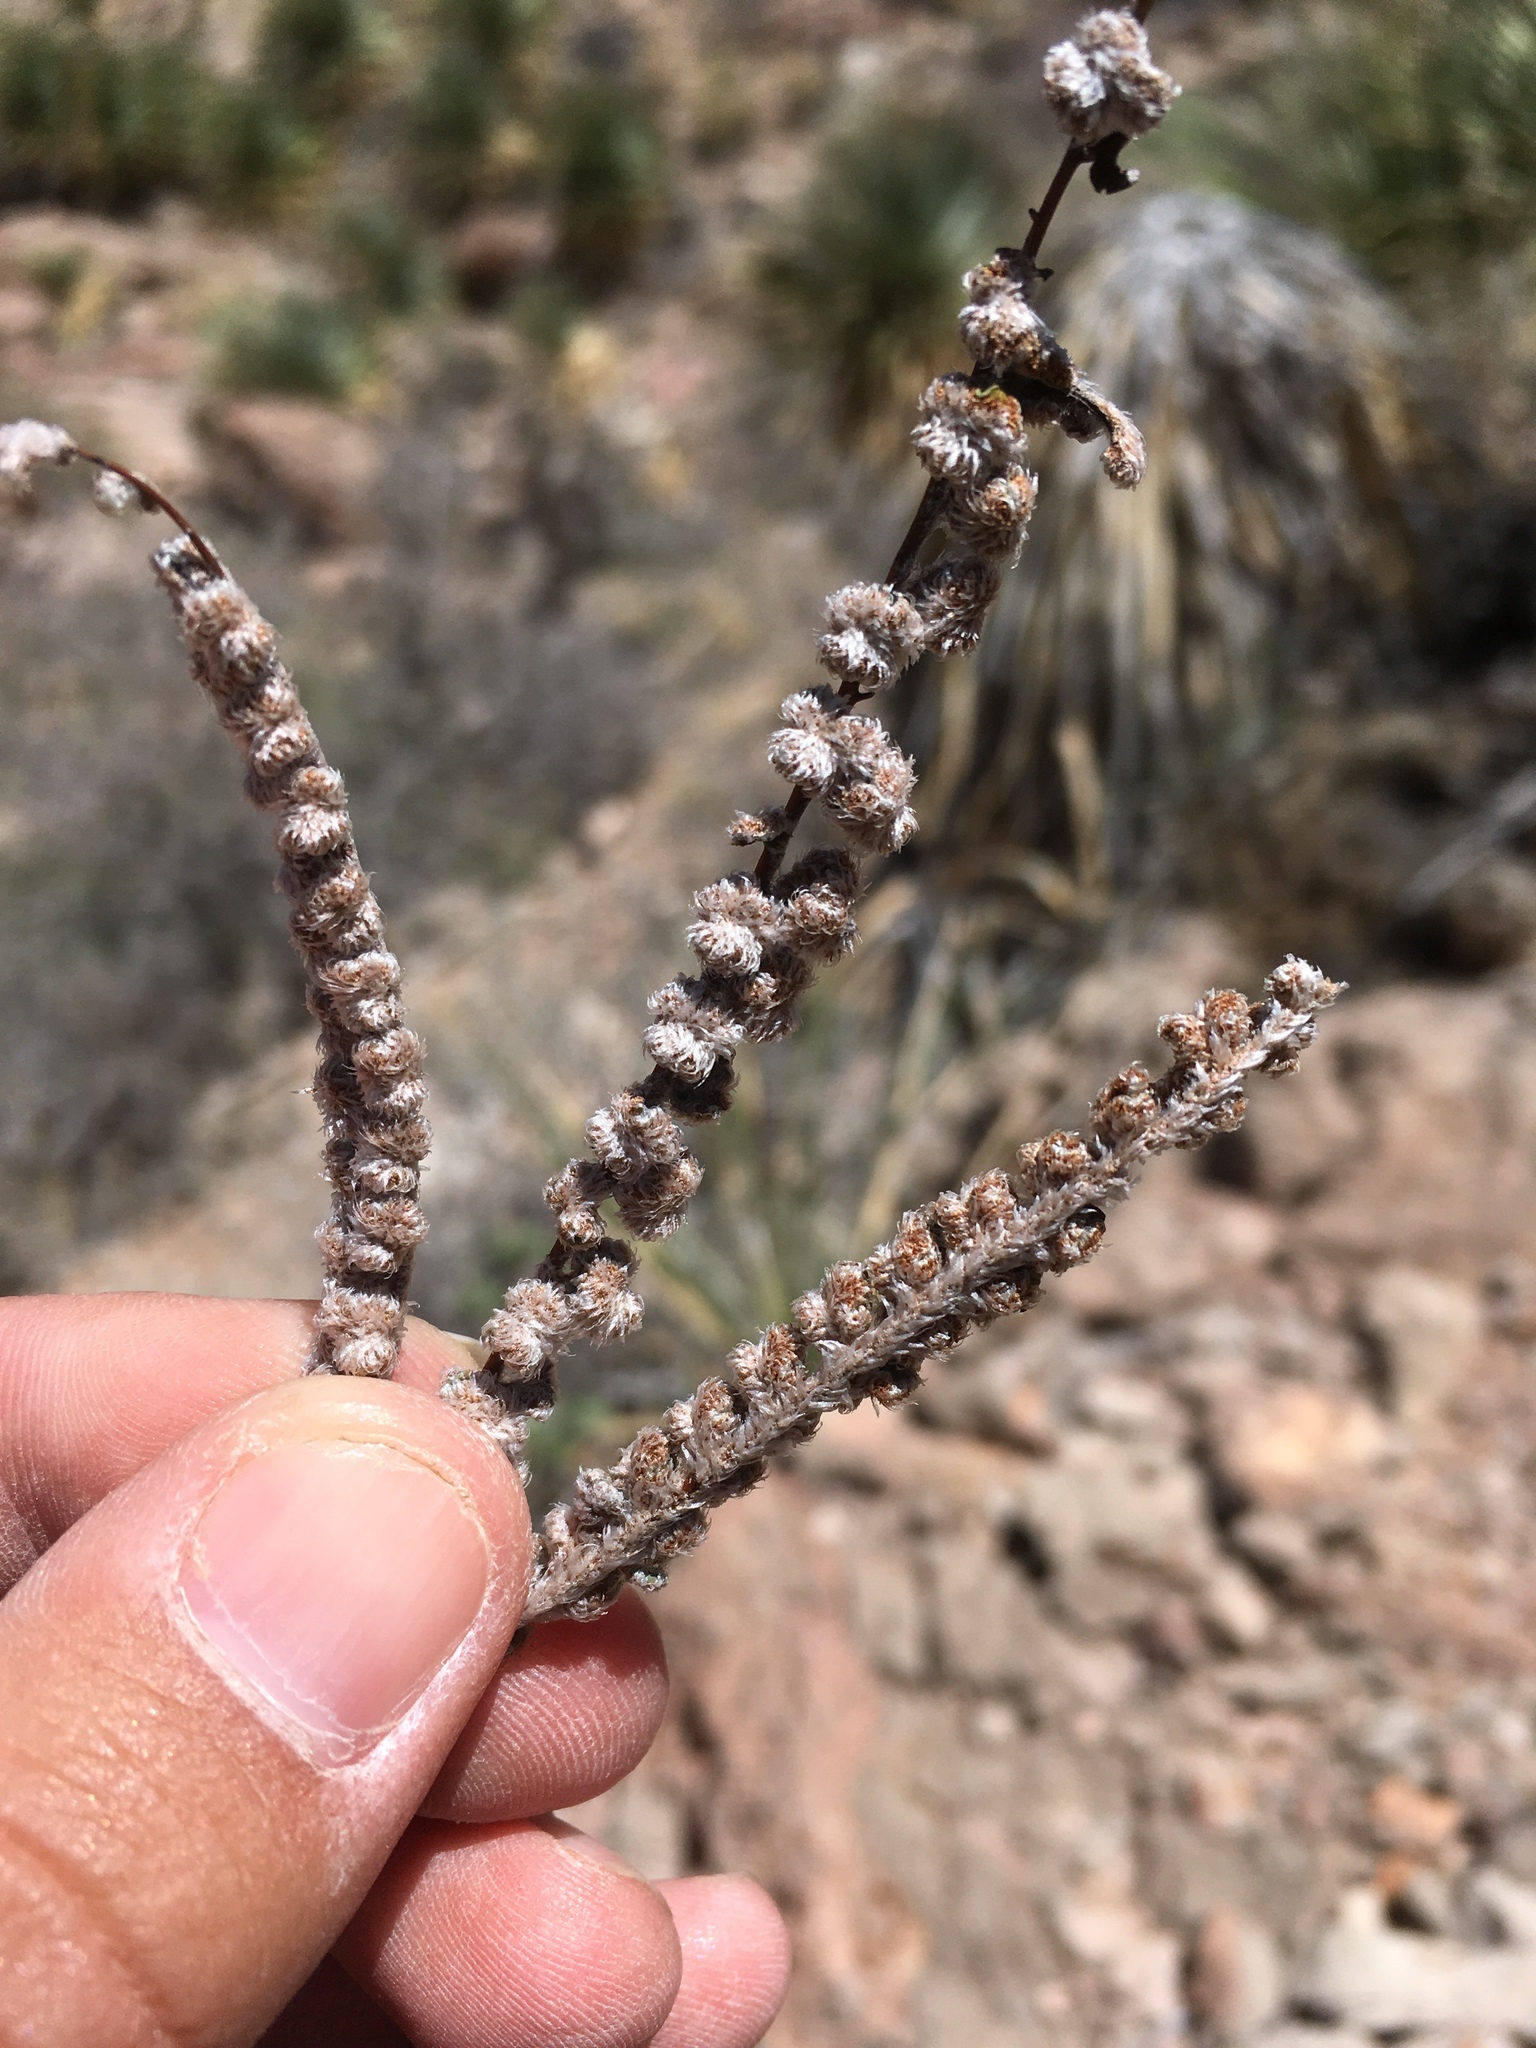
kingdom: Plantae
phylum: Tracheophyta
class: Polypodiopsida
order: Polypodiales
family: Pteridaceae
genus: Astrolepis
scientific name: Astrolepis integerrima
